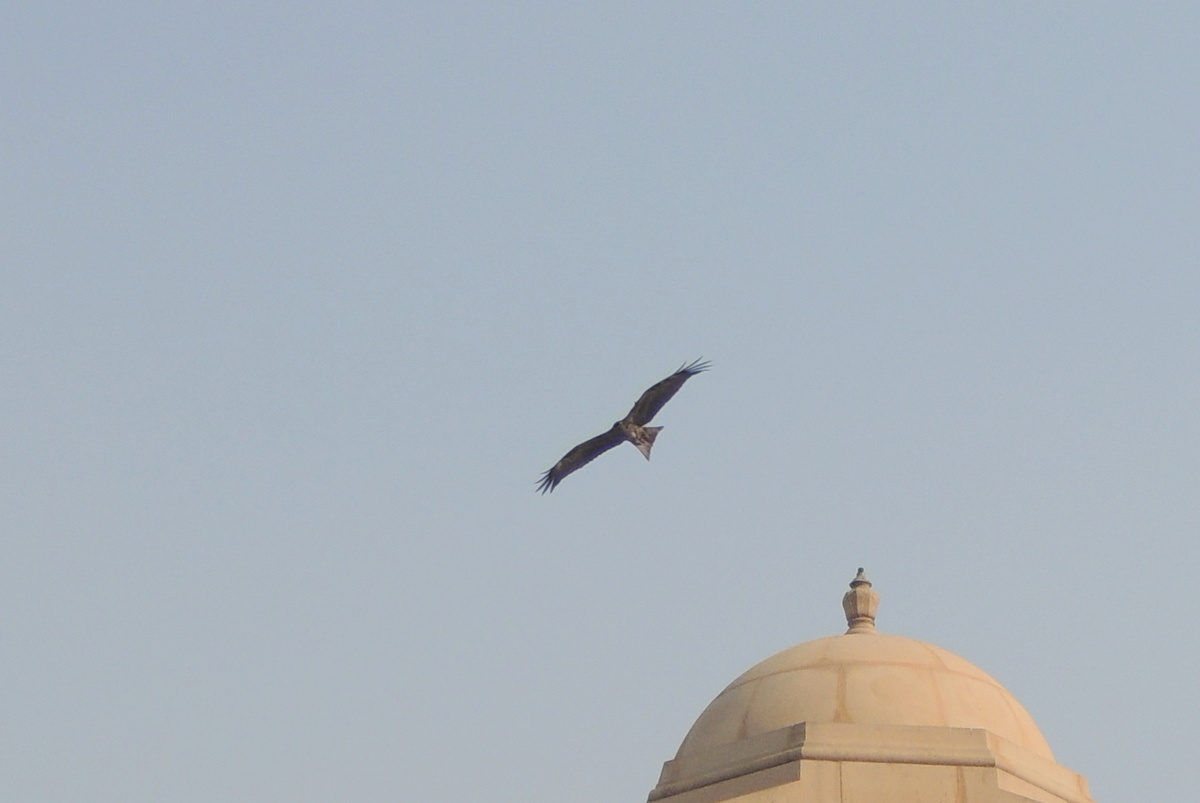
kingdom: Animalia
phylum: Chordata
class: Aves
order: Accipitriformes
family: Accipitridae
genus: Milvus
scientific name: Milvus migrans
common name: Black kite
